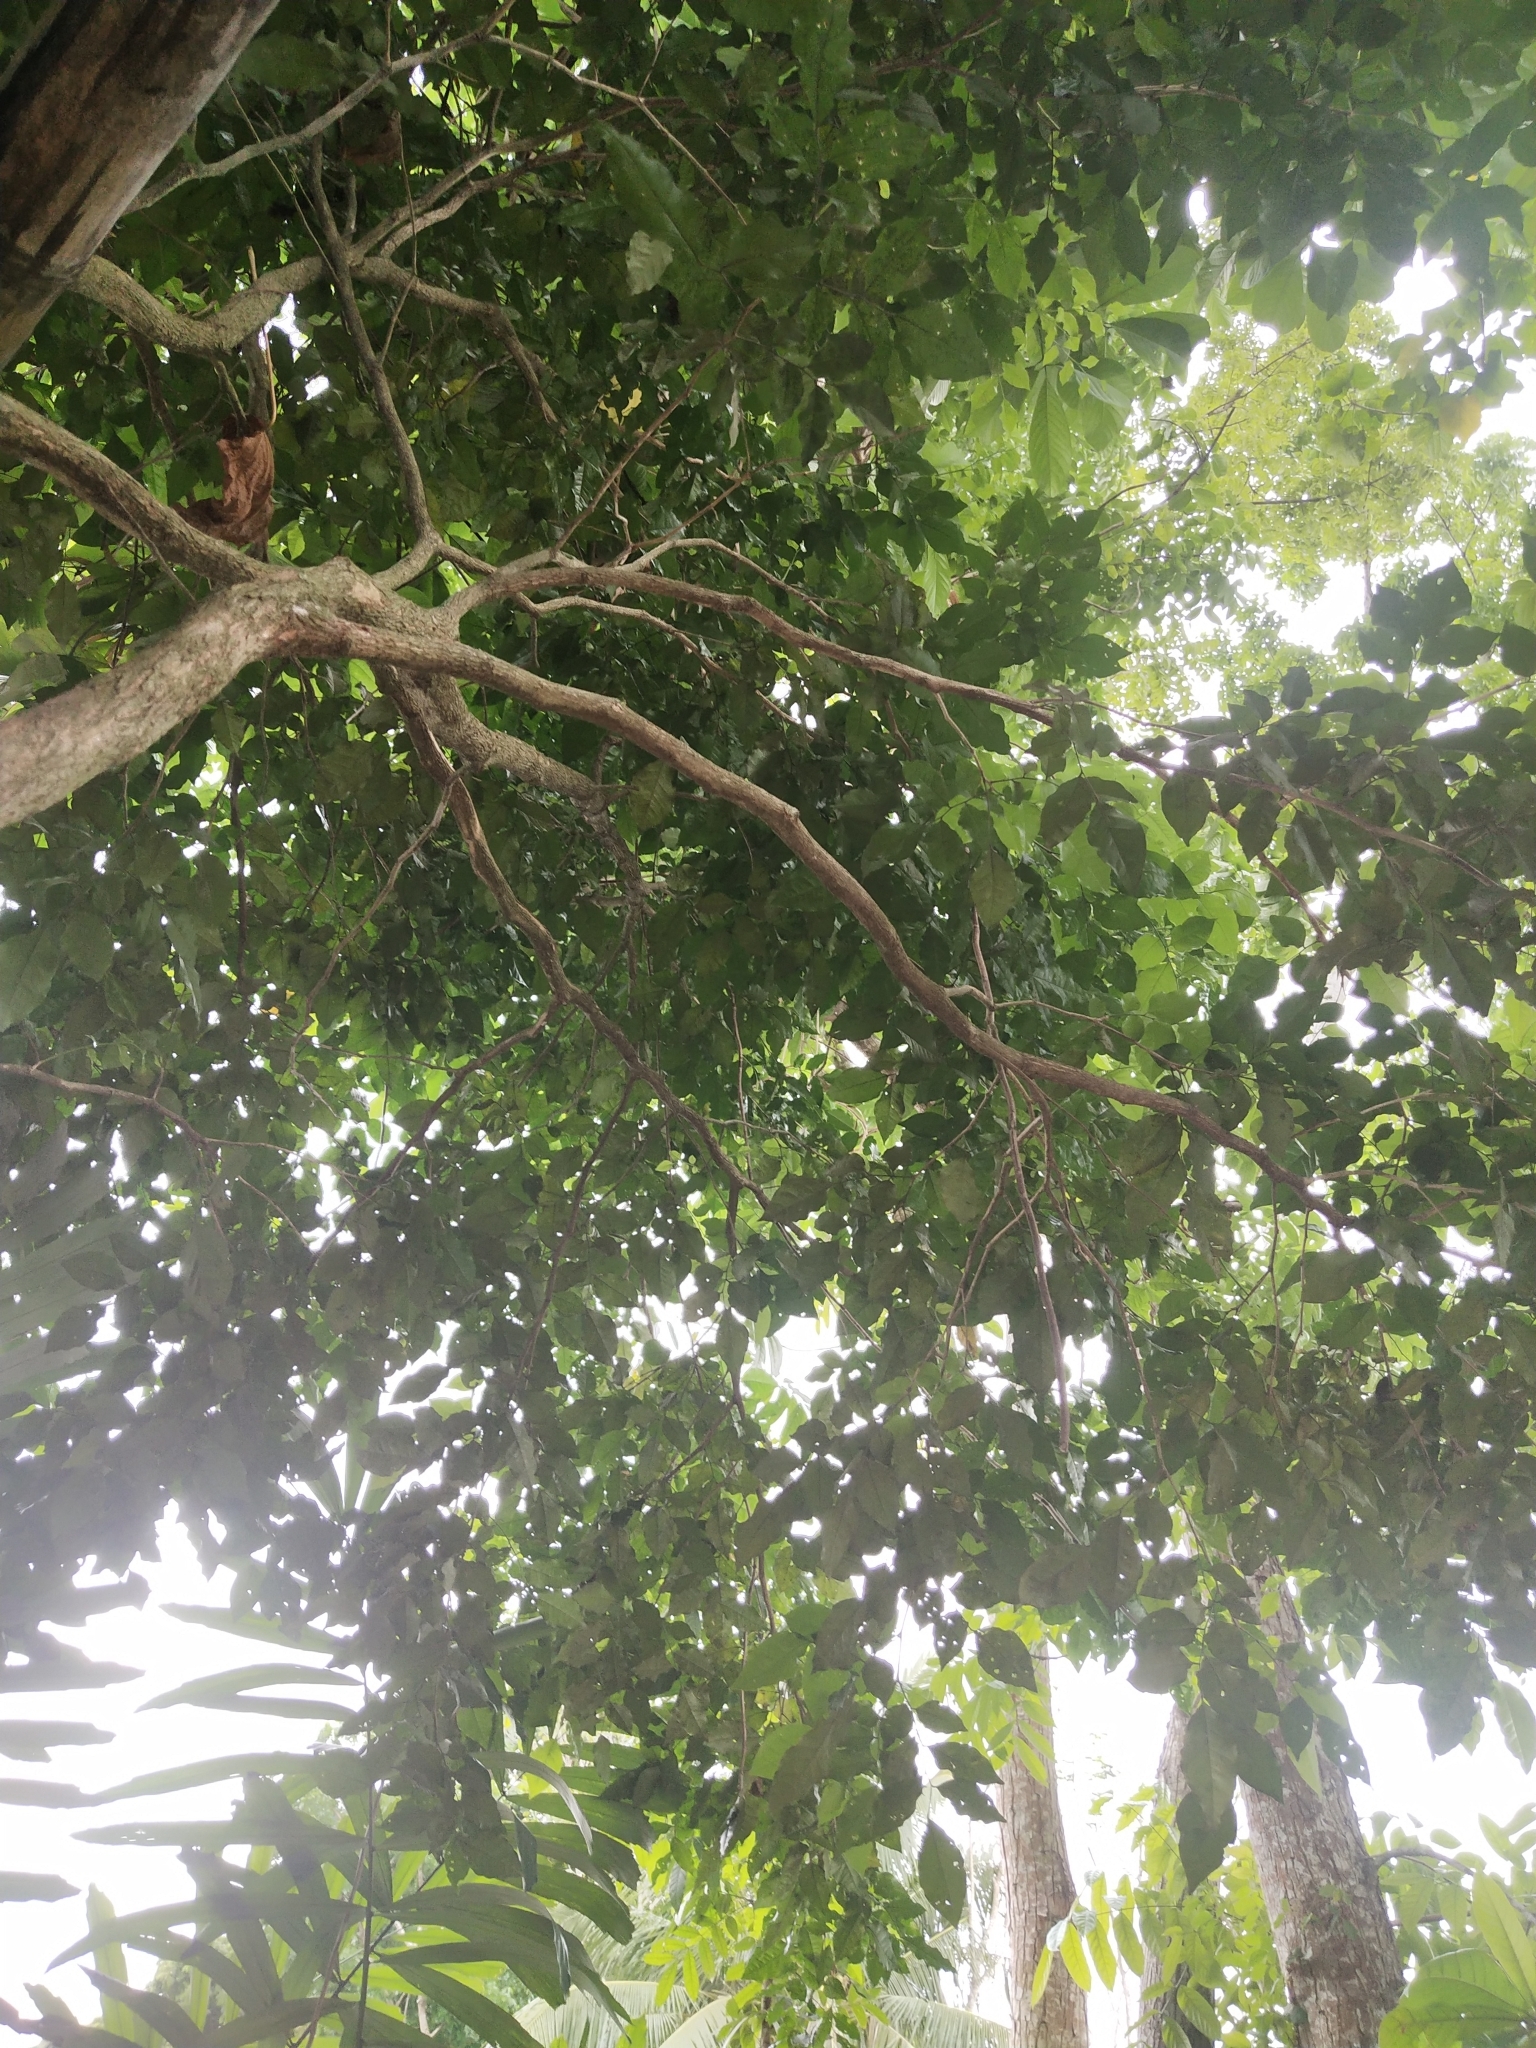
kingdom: Plantae
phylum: Tracheophyta
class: Magnoliopsida
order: Fabales
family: Fabaceae
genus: Pongamia
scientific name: Pongamia pinnata
